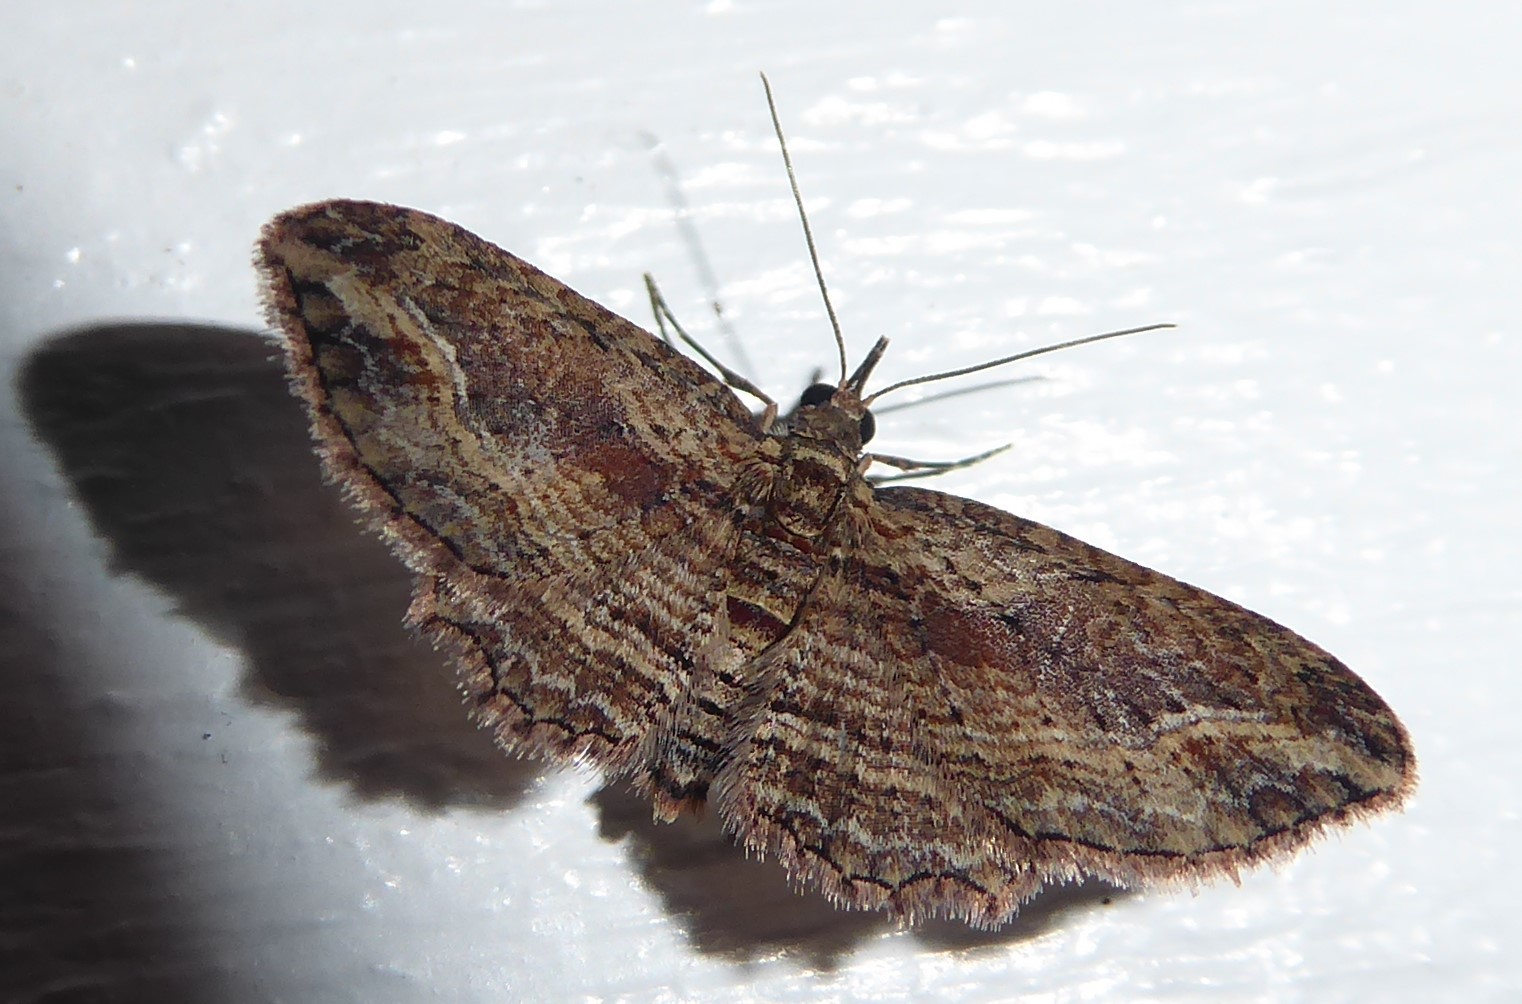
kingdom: Animalia
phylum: Arthropoda
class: Insecta
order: Lepidoptera
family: Geometridae
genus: Chloroclystis
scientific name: Chloroclystis filata
